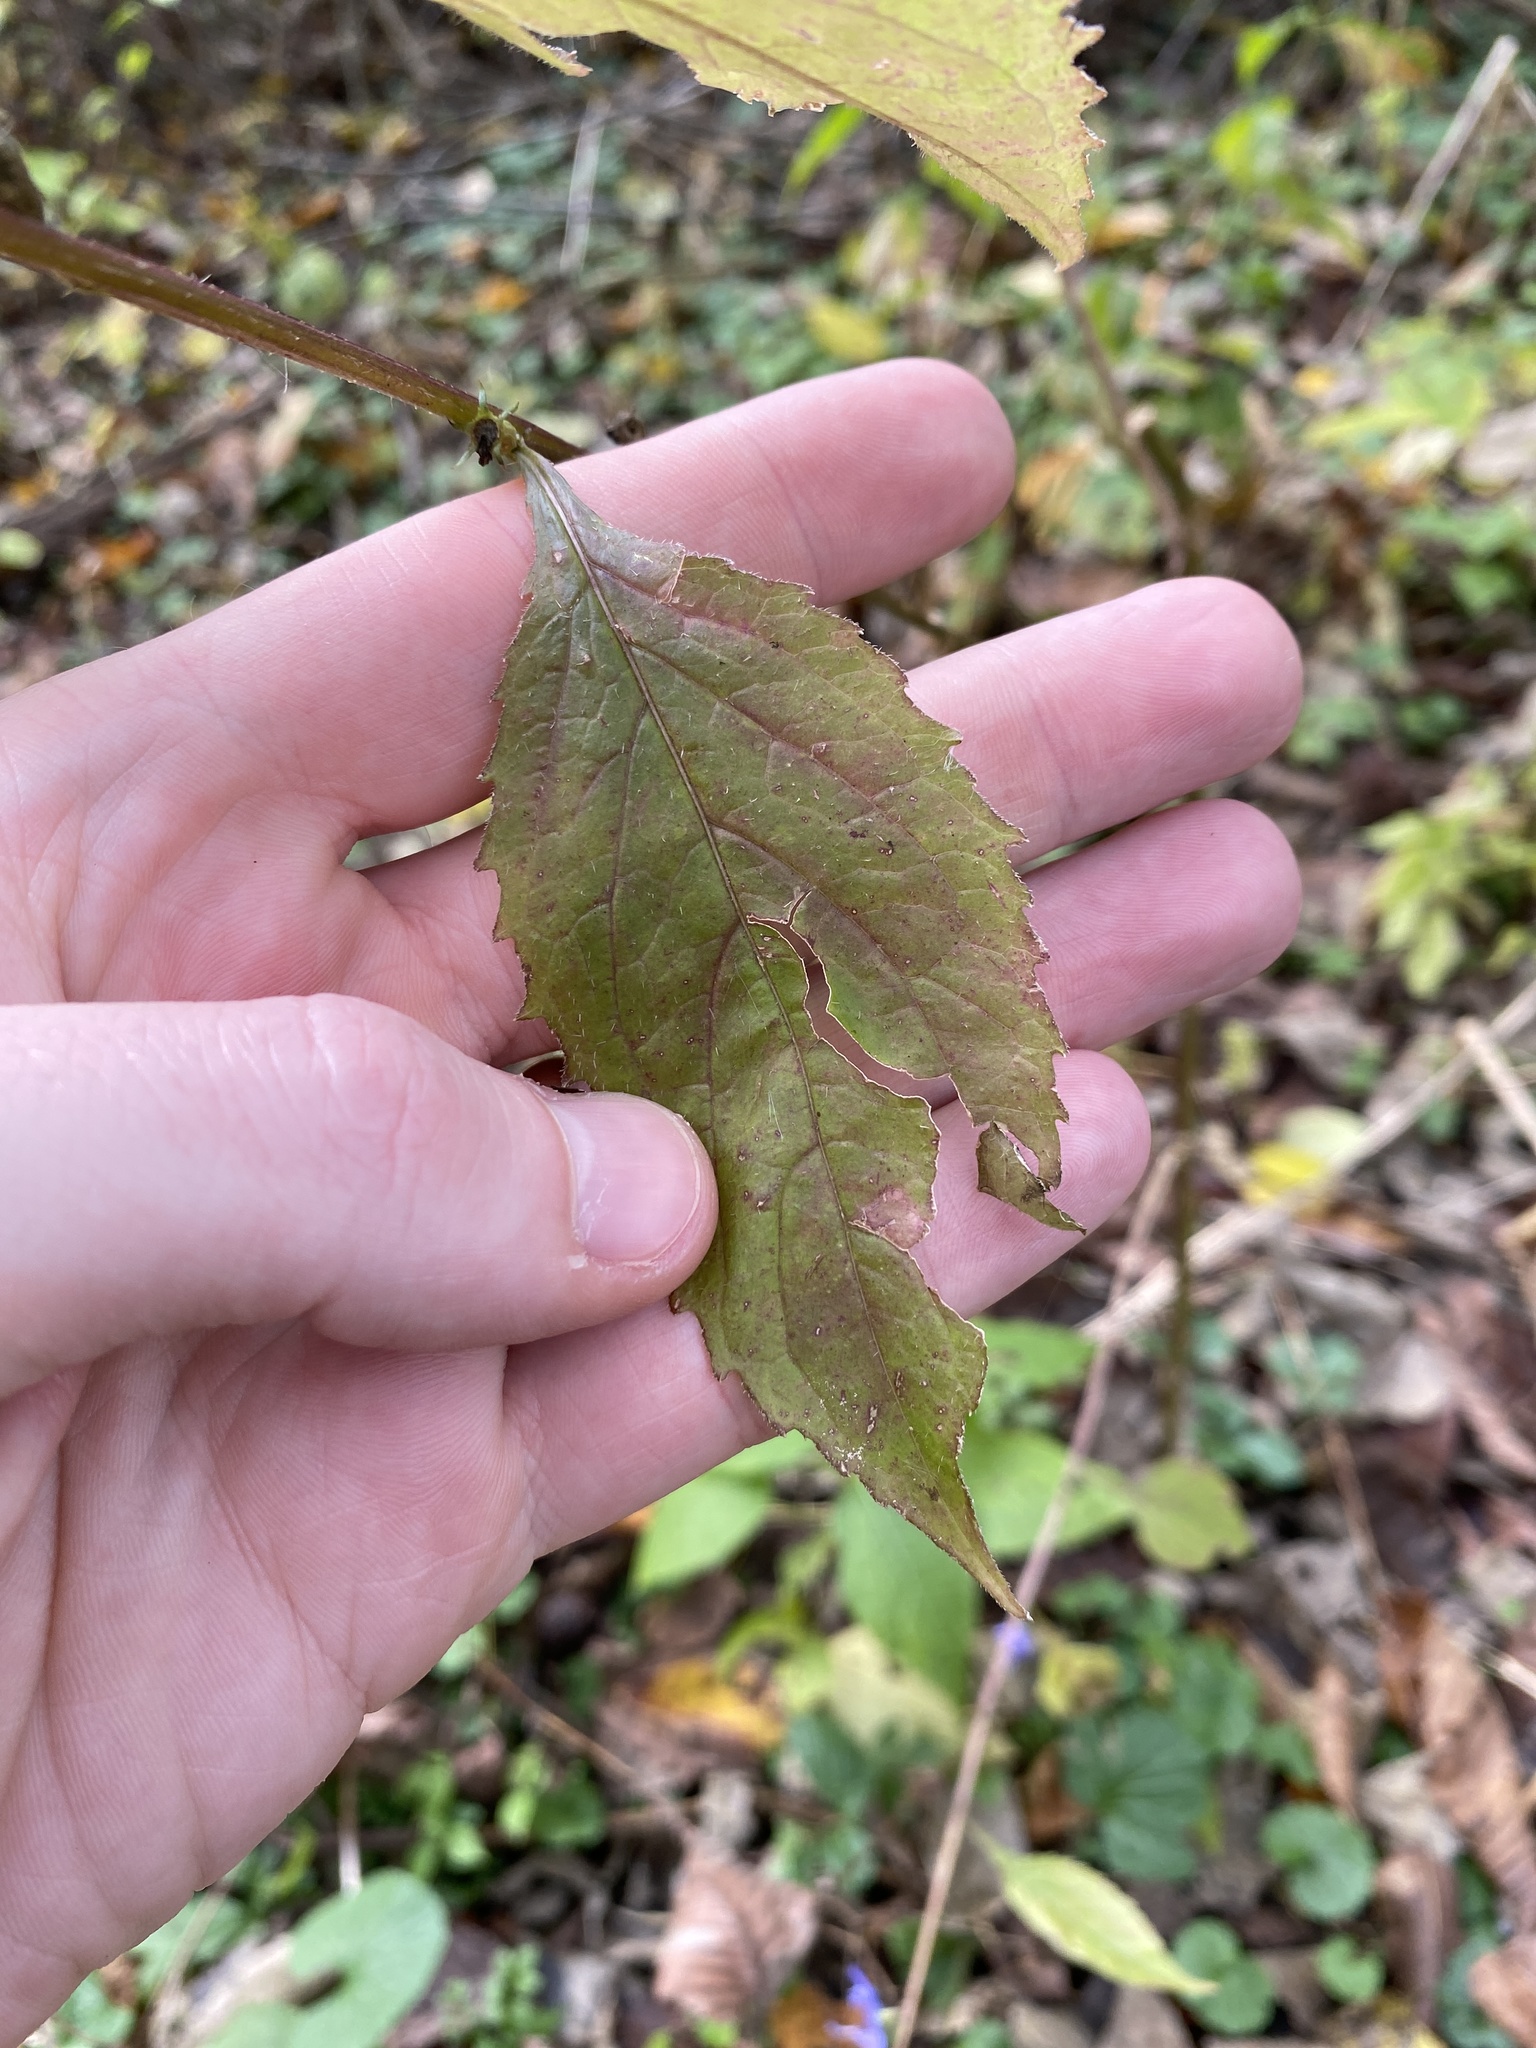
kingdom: Plantae
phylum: Tracheophyta
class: Magnoliopsida
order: Asterales
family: Campanulaceae
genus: Campanulastrum
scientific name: Campanulastrum americanum
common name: American bellflower
